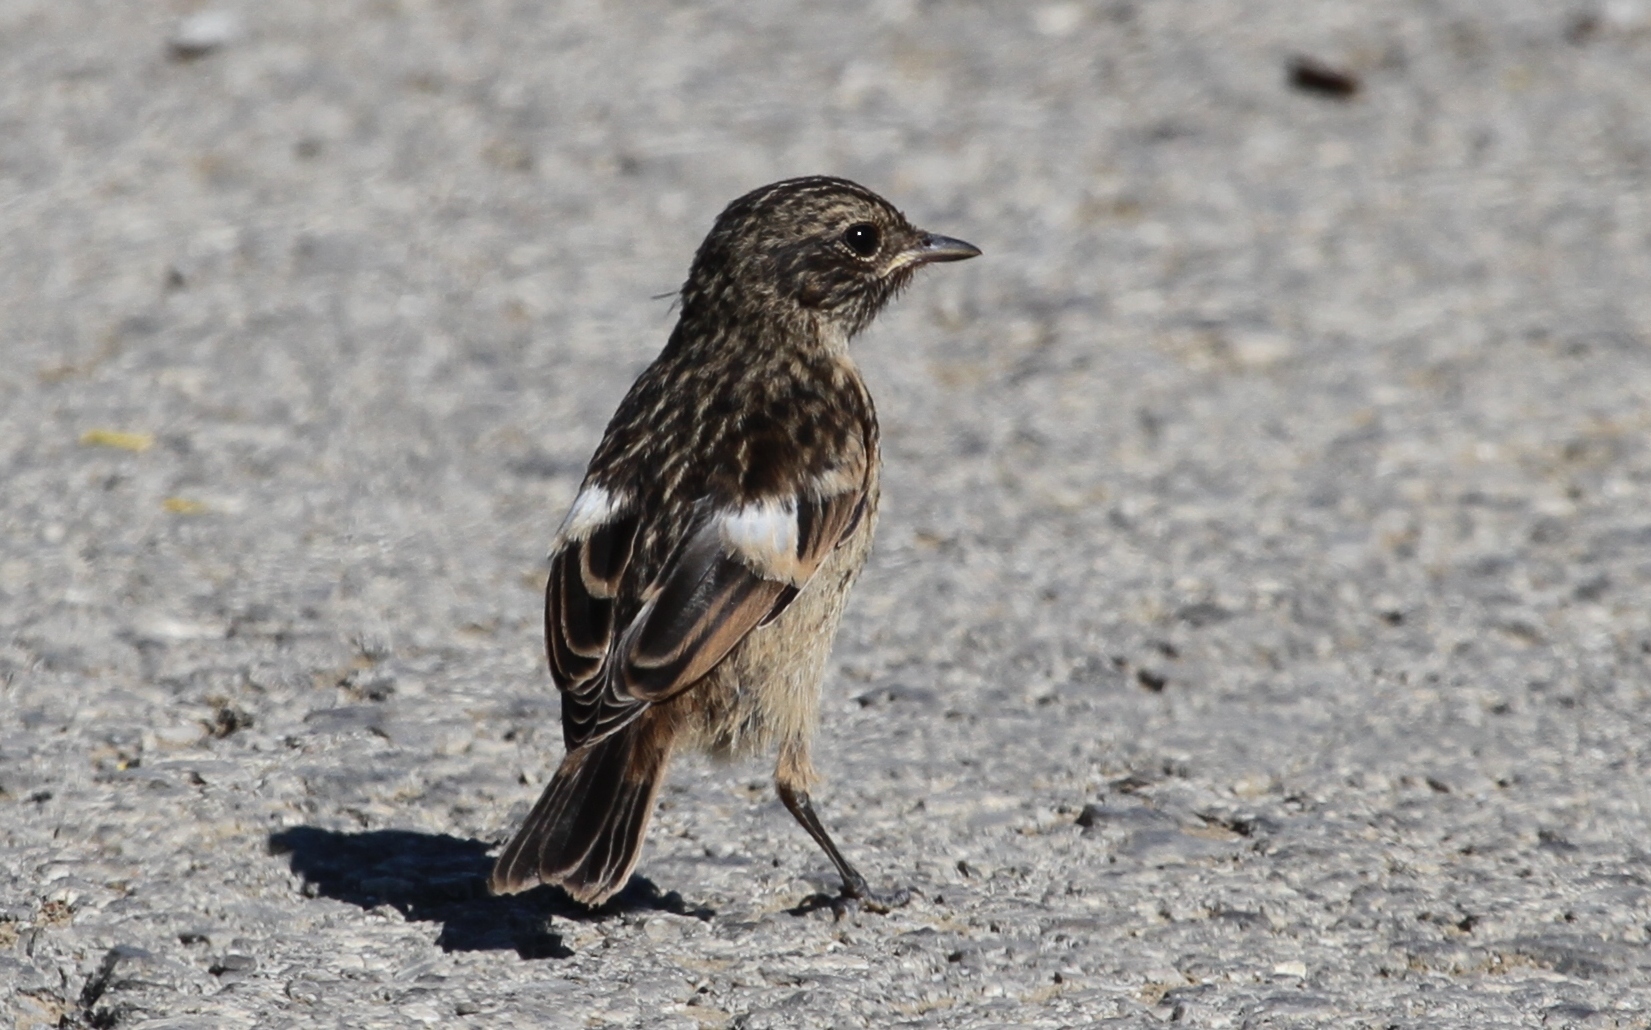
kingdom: Animalia
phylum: Chordata
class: Aves
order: Passeriformes
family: Muscicapidae
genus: Saxicola
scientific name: Saxicola rubicola
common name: European stonechat
